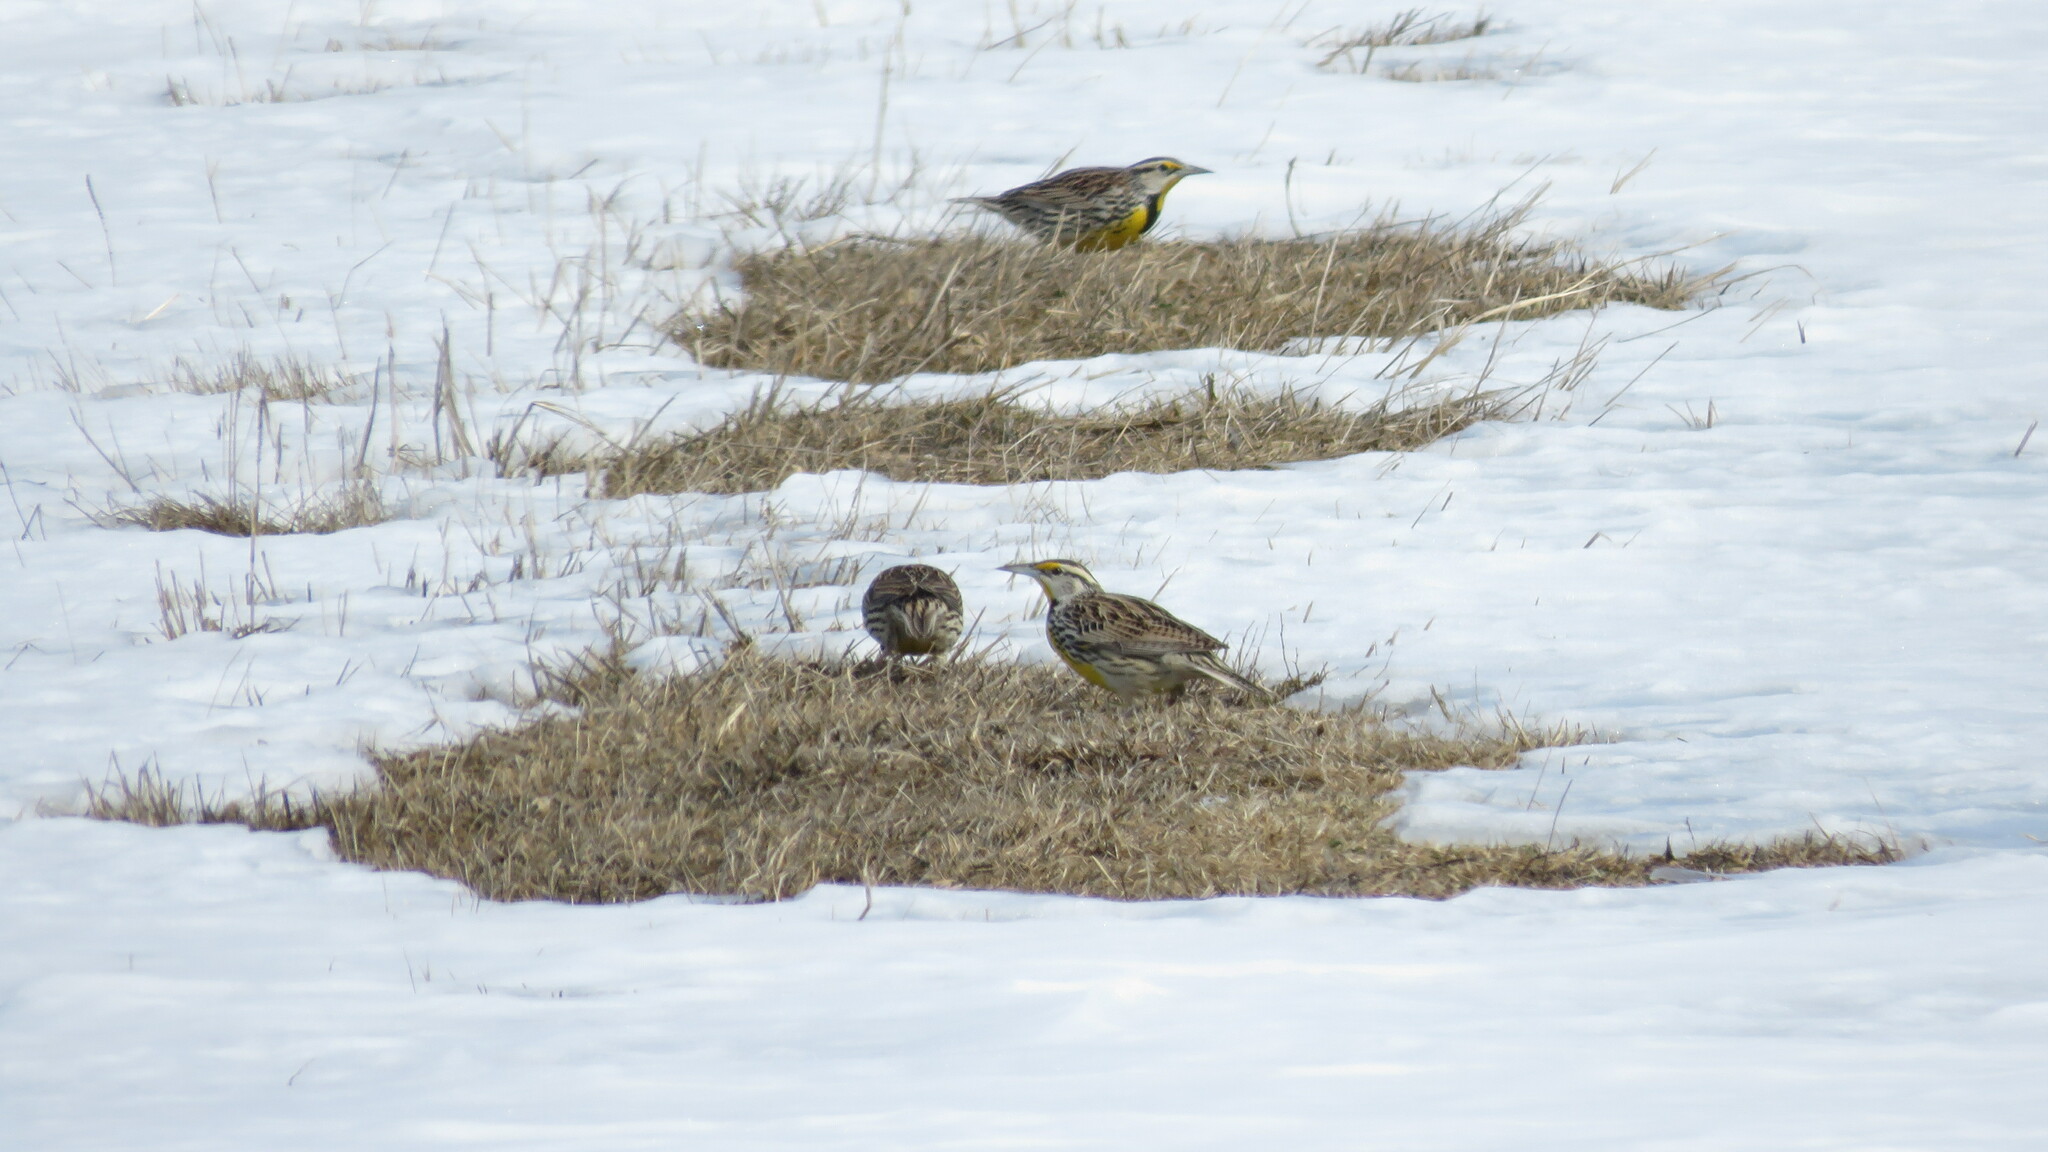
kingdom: Animalia
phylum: Chordata
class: Aves
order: Passeriformes
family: Icteridae
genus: Sturnella
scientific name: Sturnella magna
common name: Eastern meadowlark
